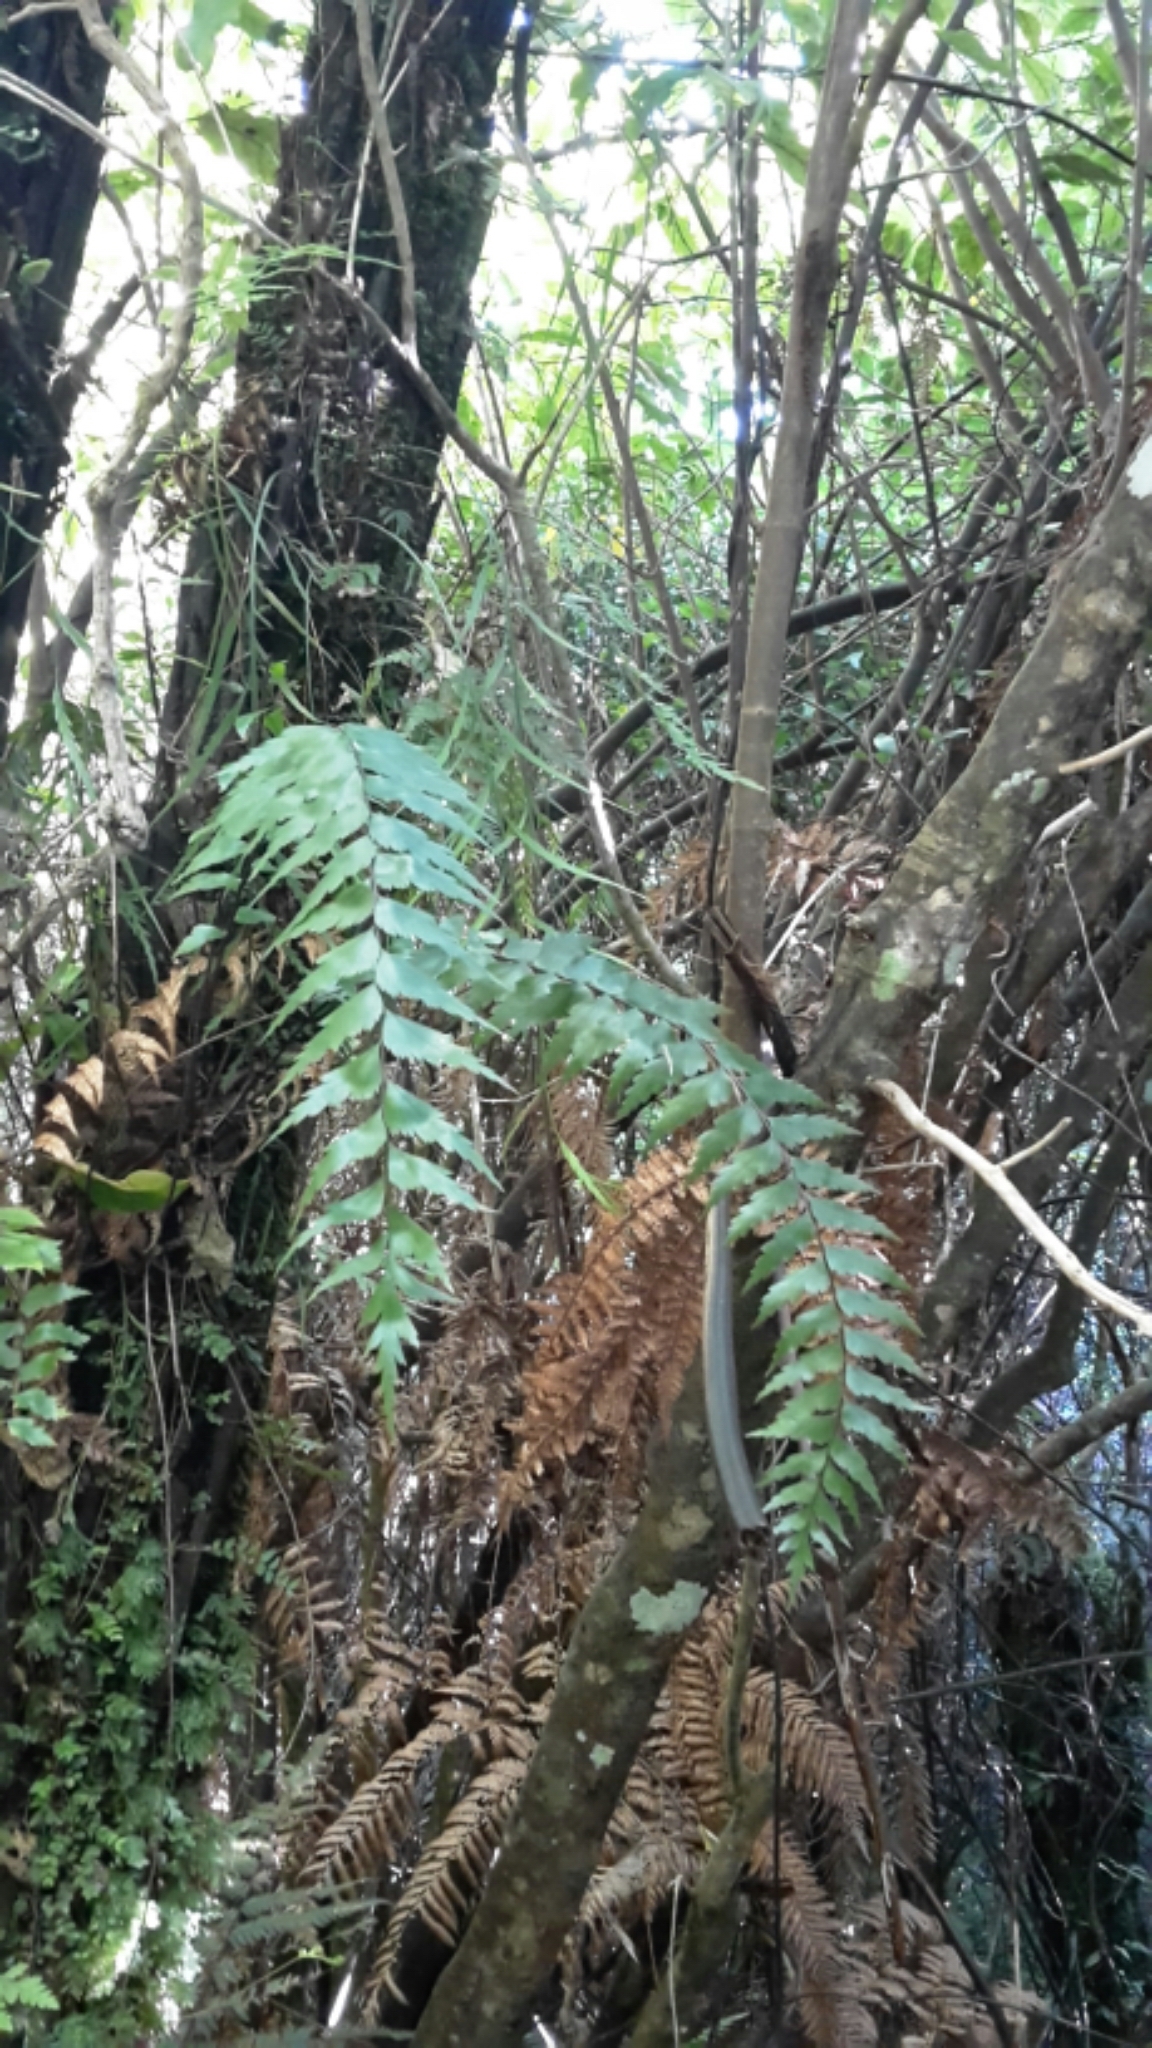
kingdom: Plantae
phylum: Tracheophyta
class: Polypodiopsida
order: Polypodiales
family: Aspleniaceae
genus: Asplenium
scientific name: Asplenium polyodon
